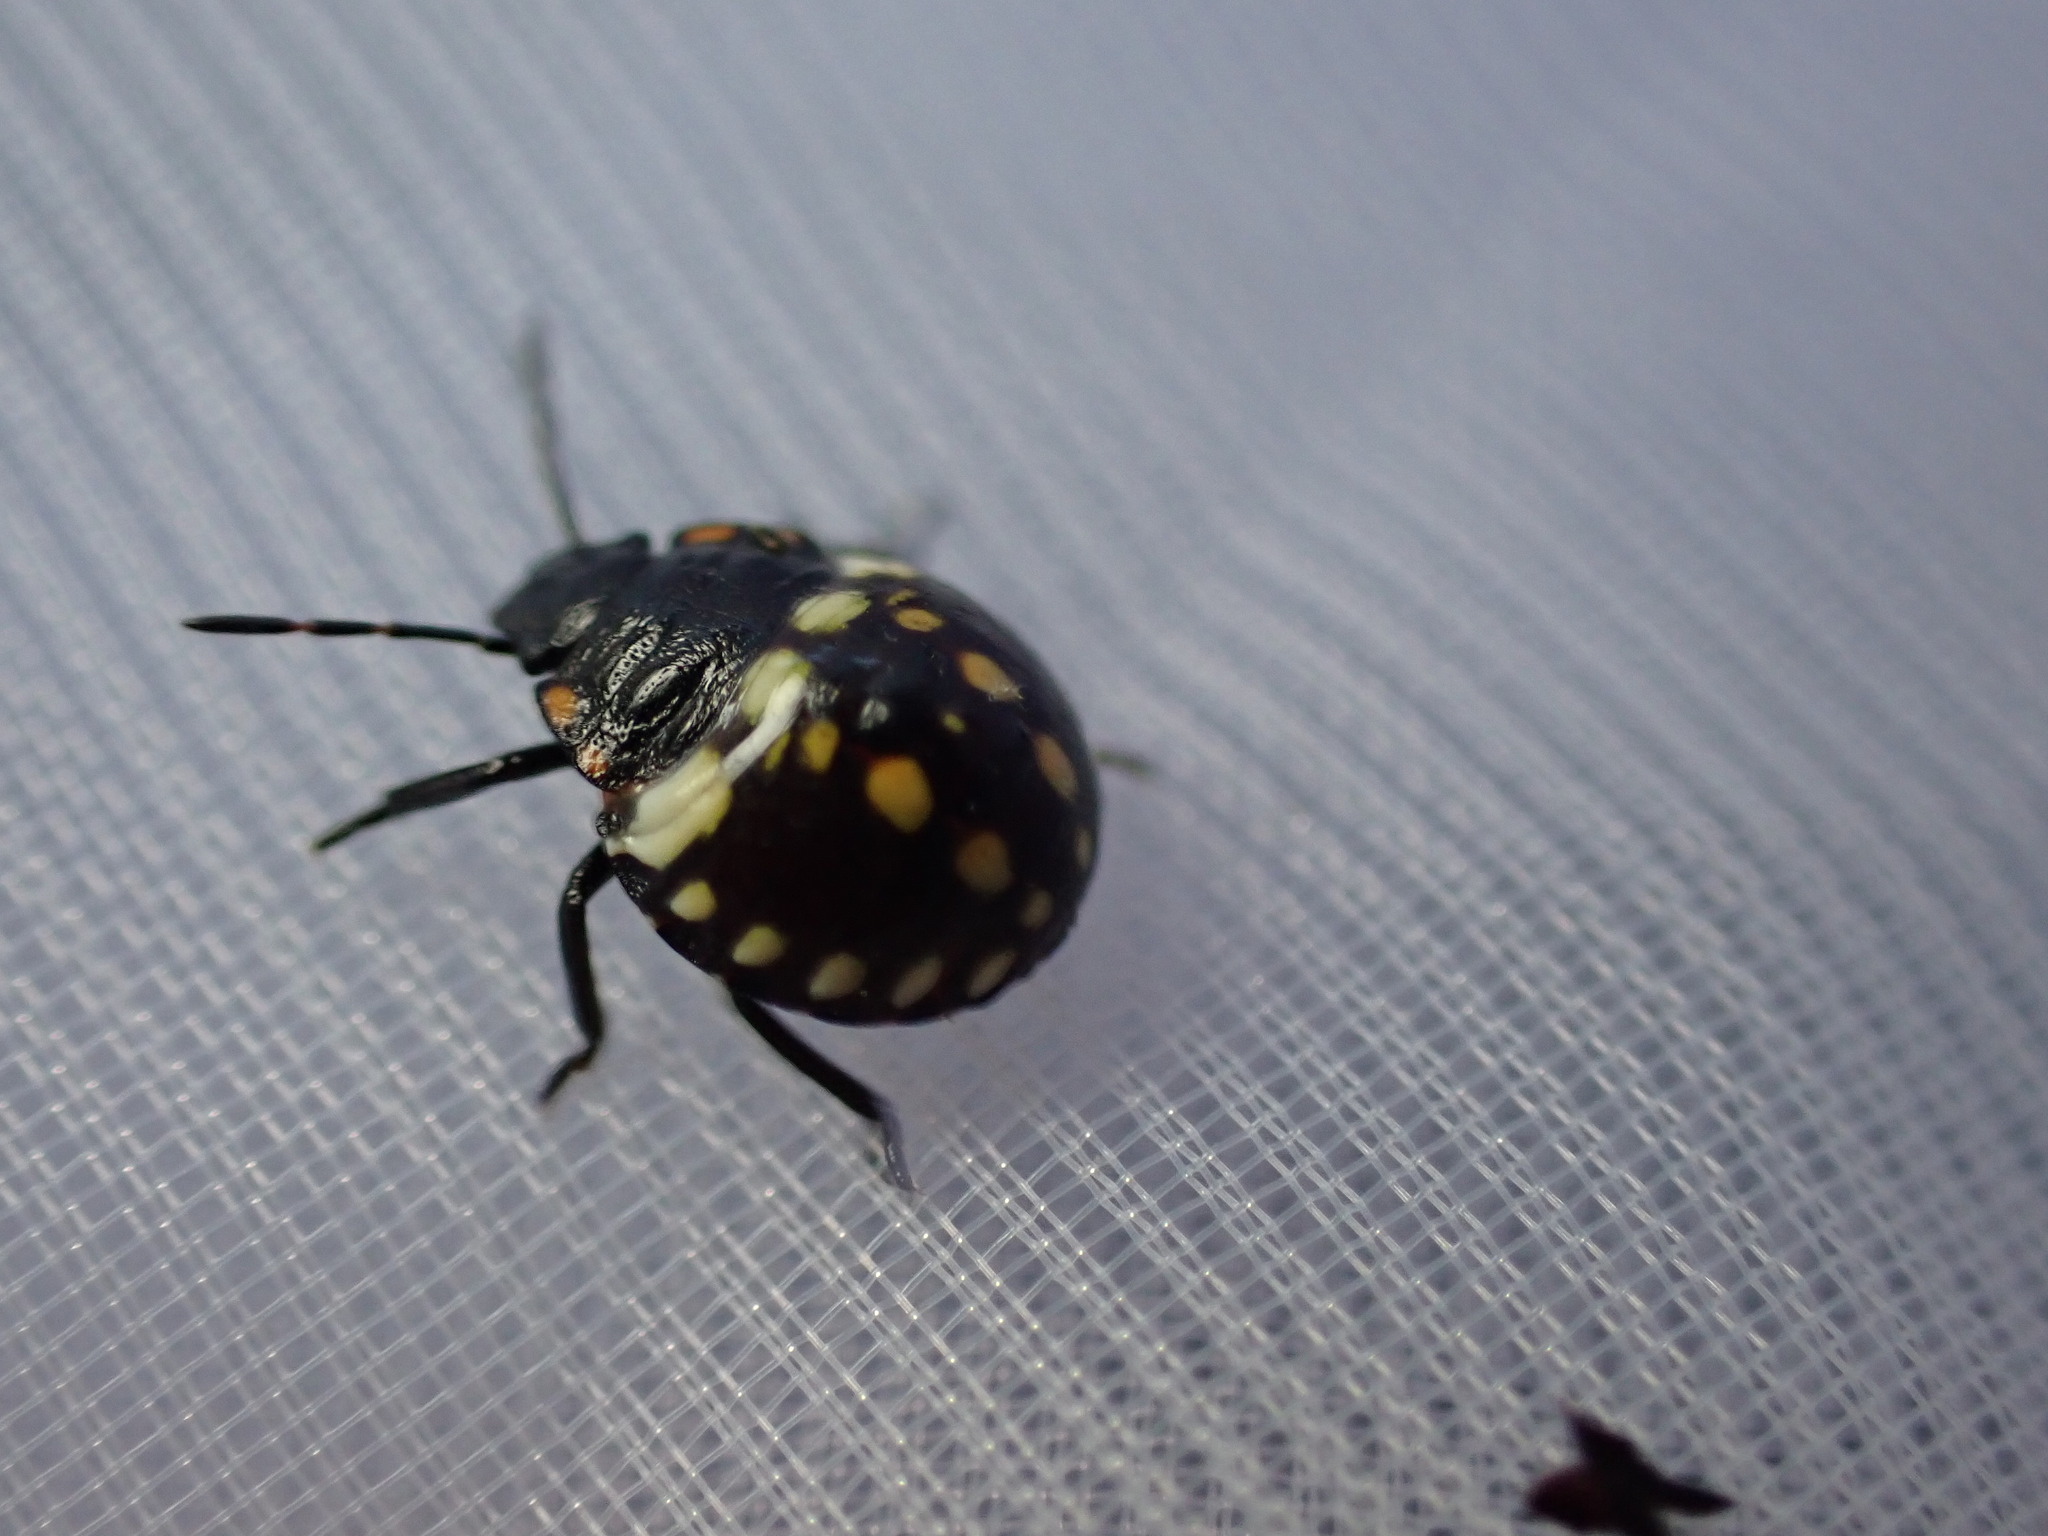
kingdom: Animalia
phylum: Arthropoda
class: Insecta
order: Hemiptera
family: Pentatomidae
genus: Nezara
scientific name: Nezara viridula
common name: Southern green stink bug
